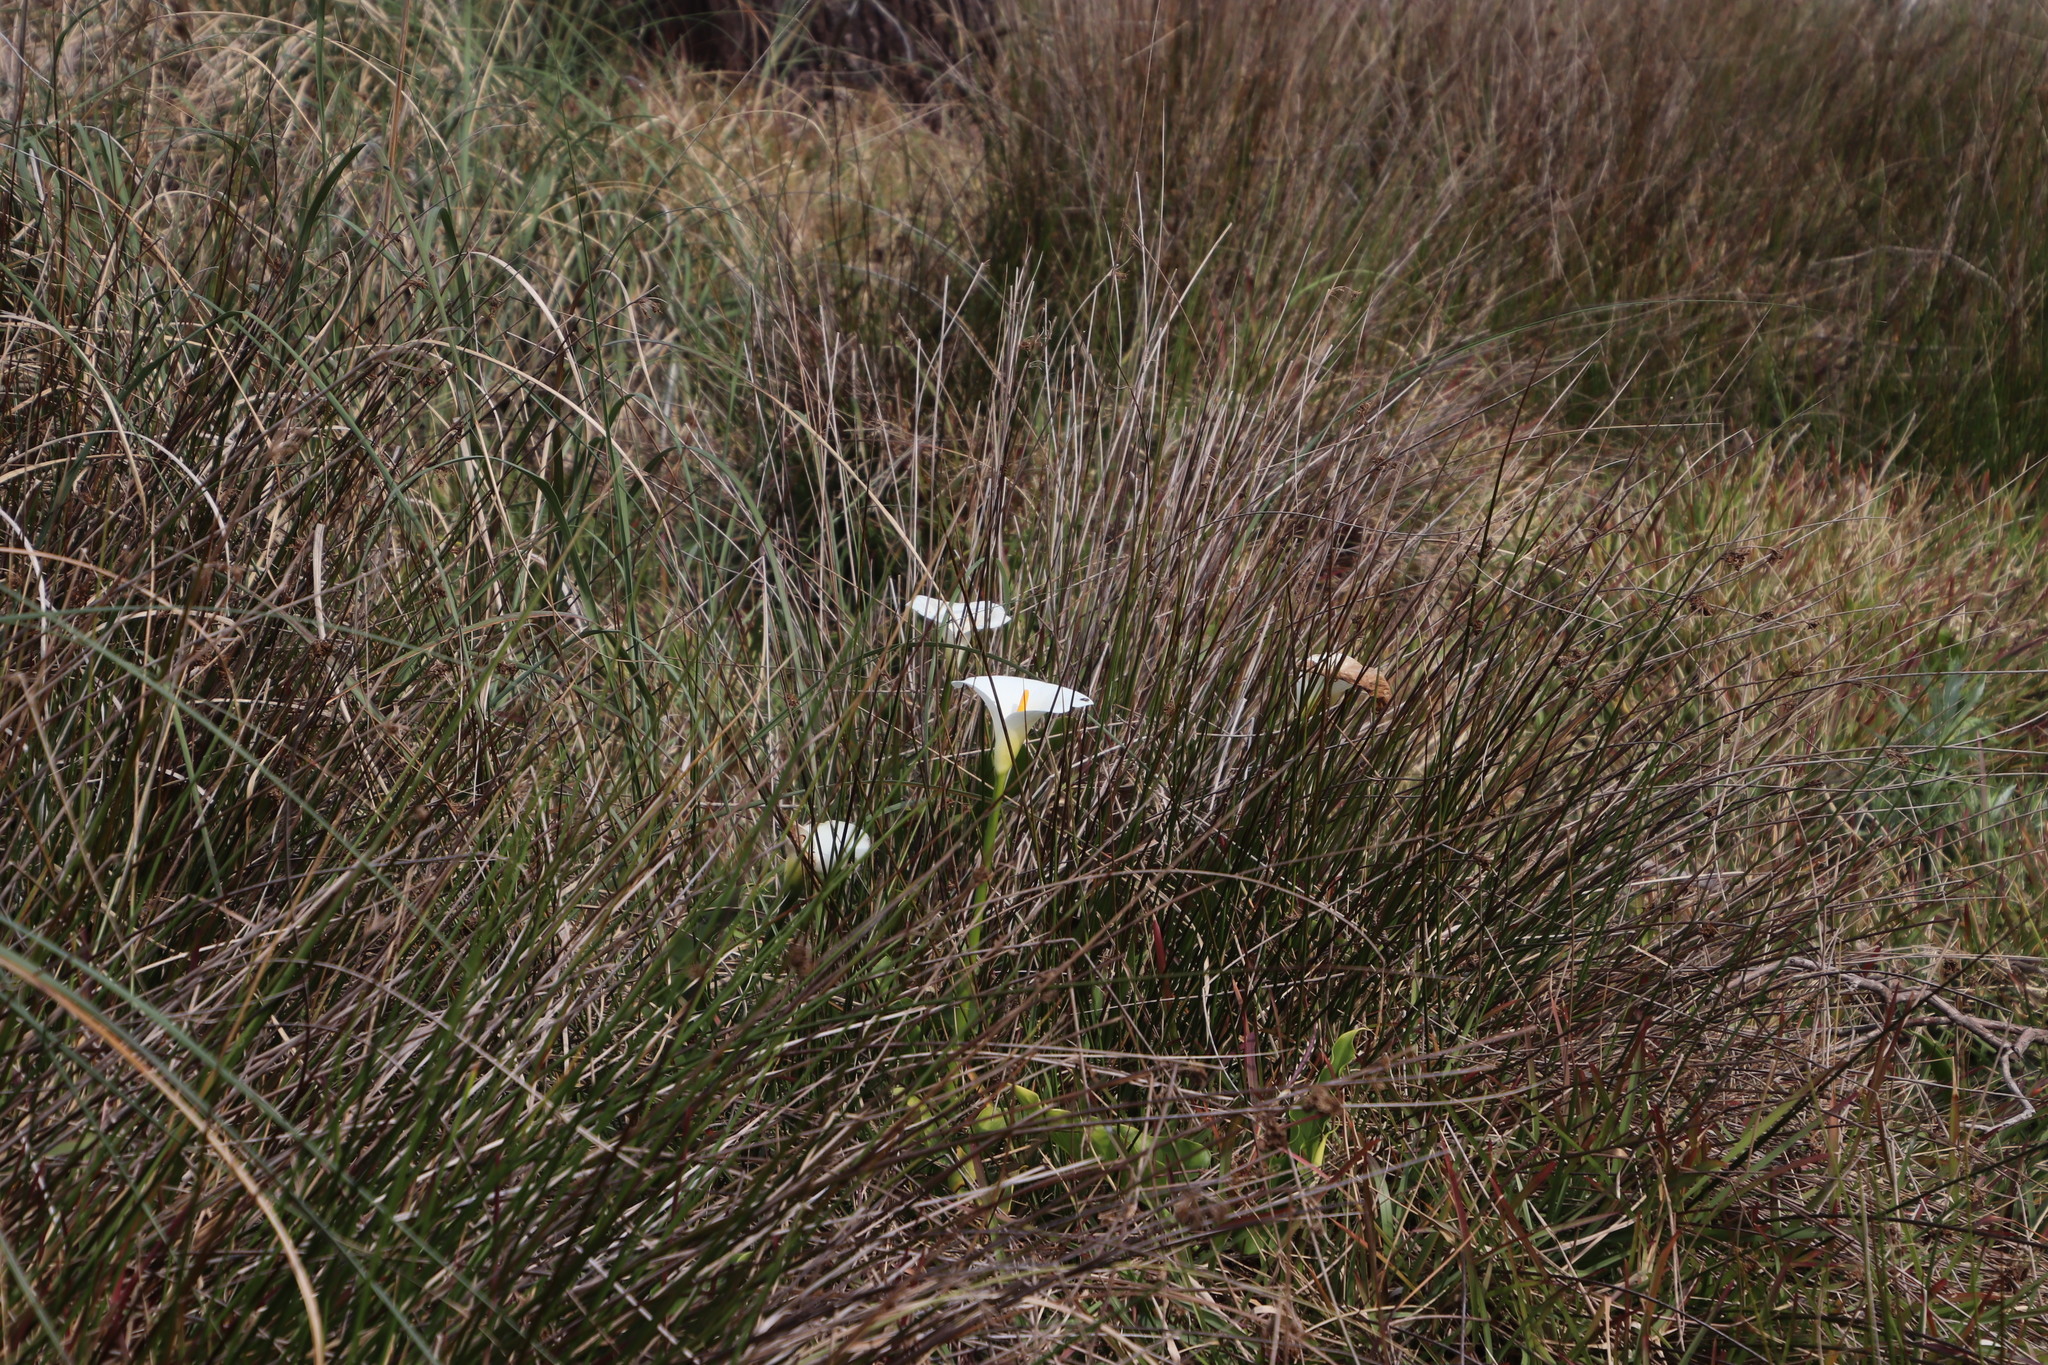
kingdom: Plantae
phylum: Tracheophyta
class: Liliopsida
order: Alismatales
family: Araceae
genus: Zantedeschia
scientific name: Zantedeschia aethiopica
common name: Altar-lily
